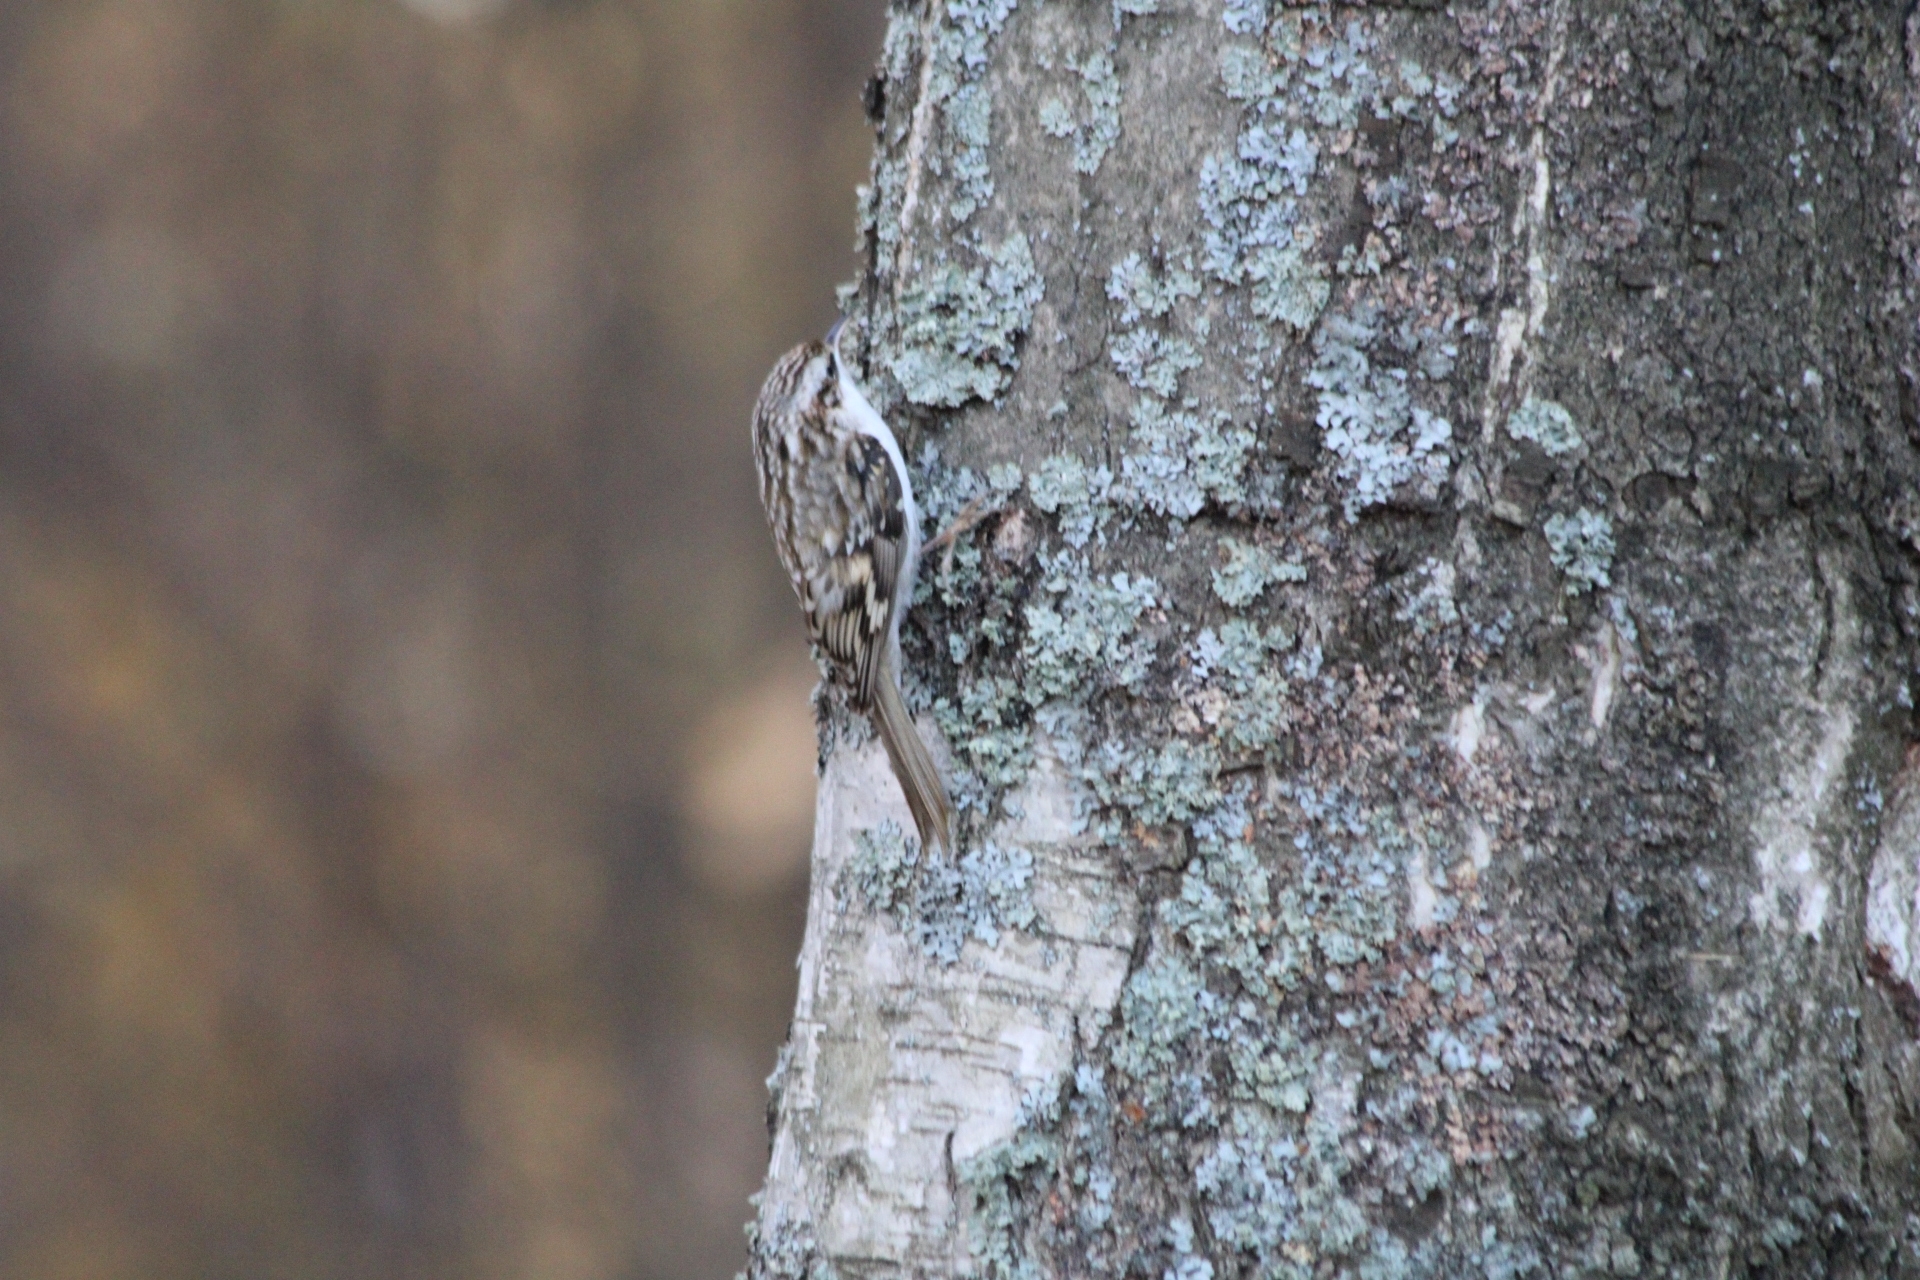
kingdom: Animalia
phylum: Chordata
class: Aves
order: Passeriformes
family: Certhiidae
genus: Certhia
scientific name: Certhia familiaris
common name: Eurasian treecreeper
